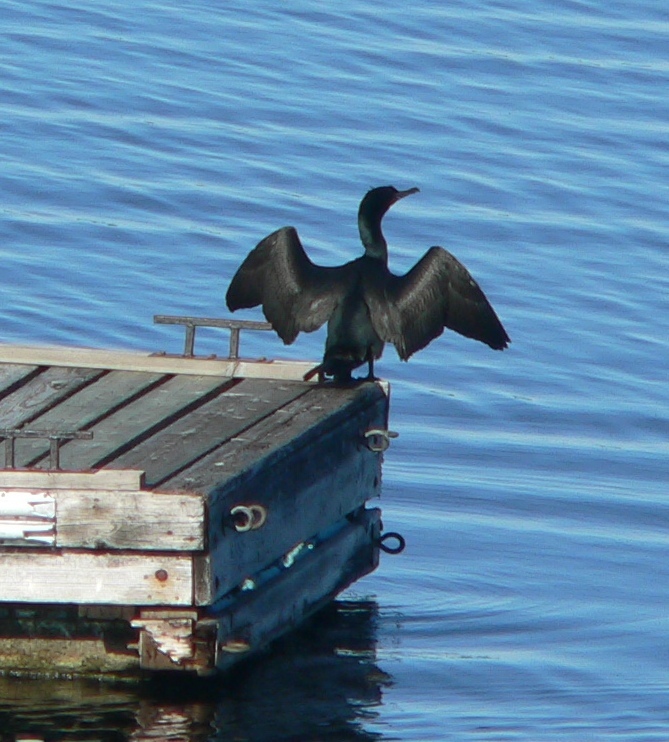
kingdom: Animalia
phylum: Chordata
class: Aves
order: Suliformes
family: Phalacrocoracidae
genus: Phalacrocorax
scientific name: Phalacrocorax auritus
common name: Double-crested cormorant
